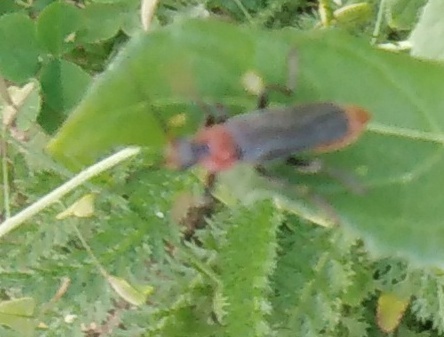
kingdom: Animalia
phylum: Arthropoda
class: Insecta
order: Coleoptera
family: Cantharidae
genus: Cantharis
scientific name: Cantharis fusca
